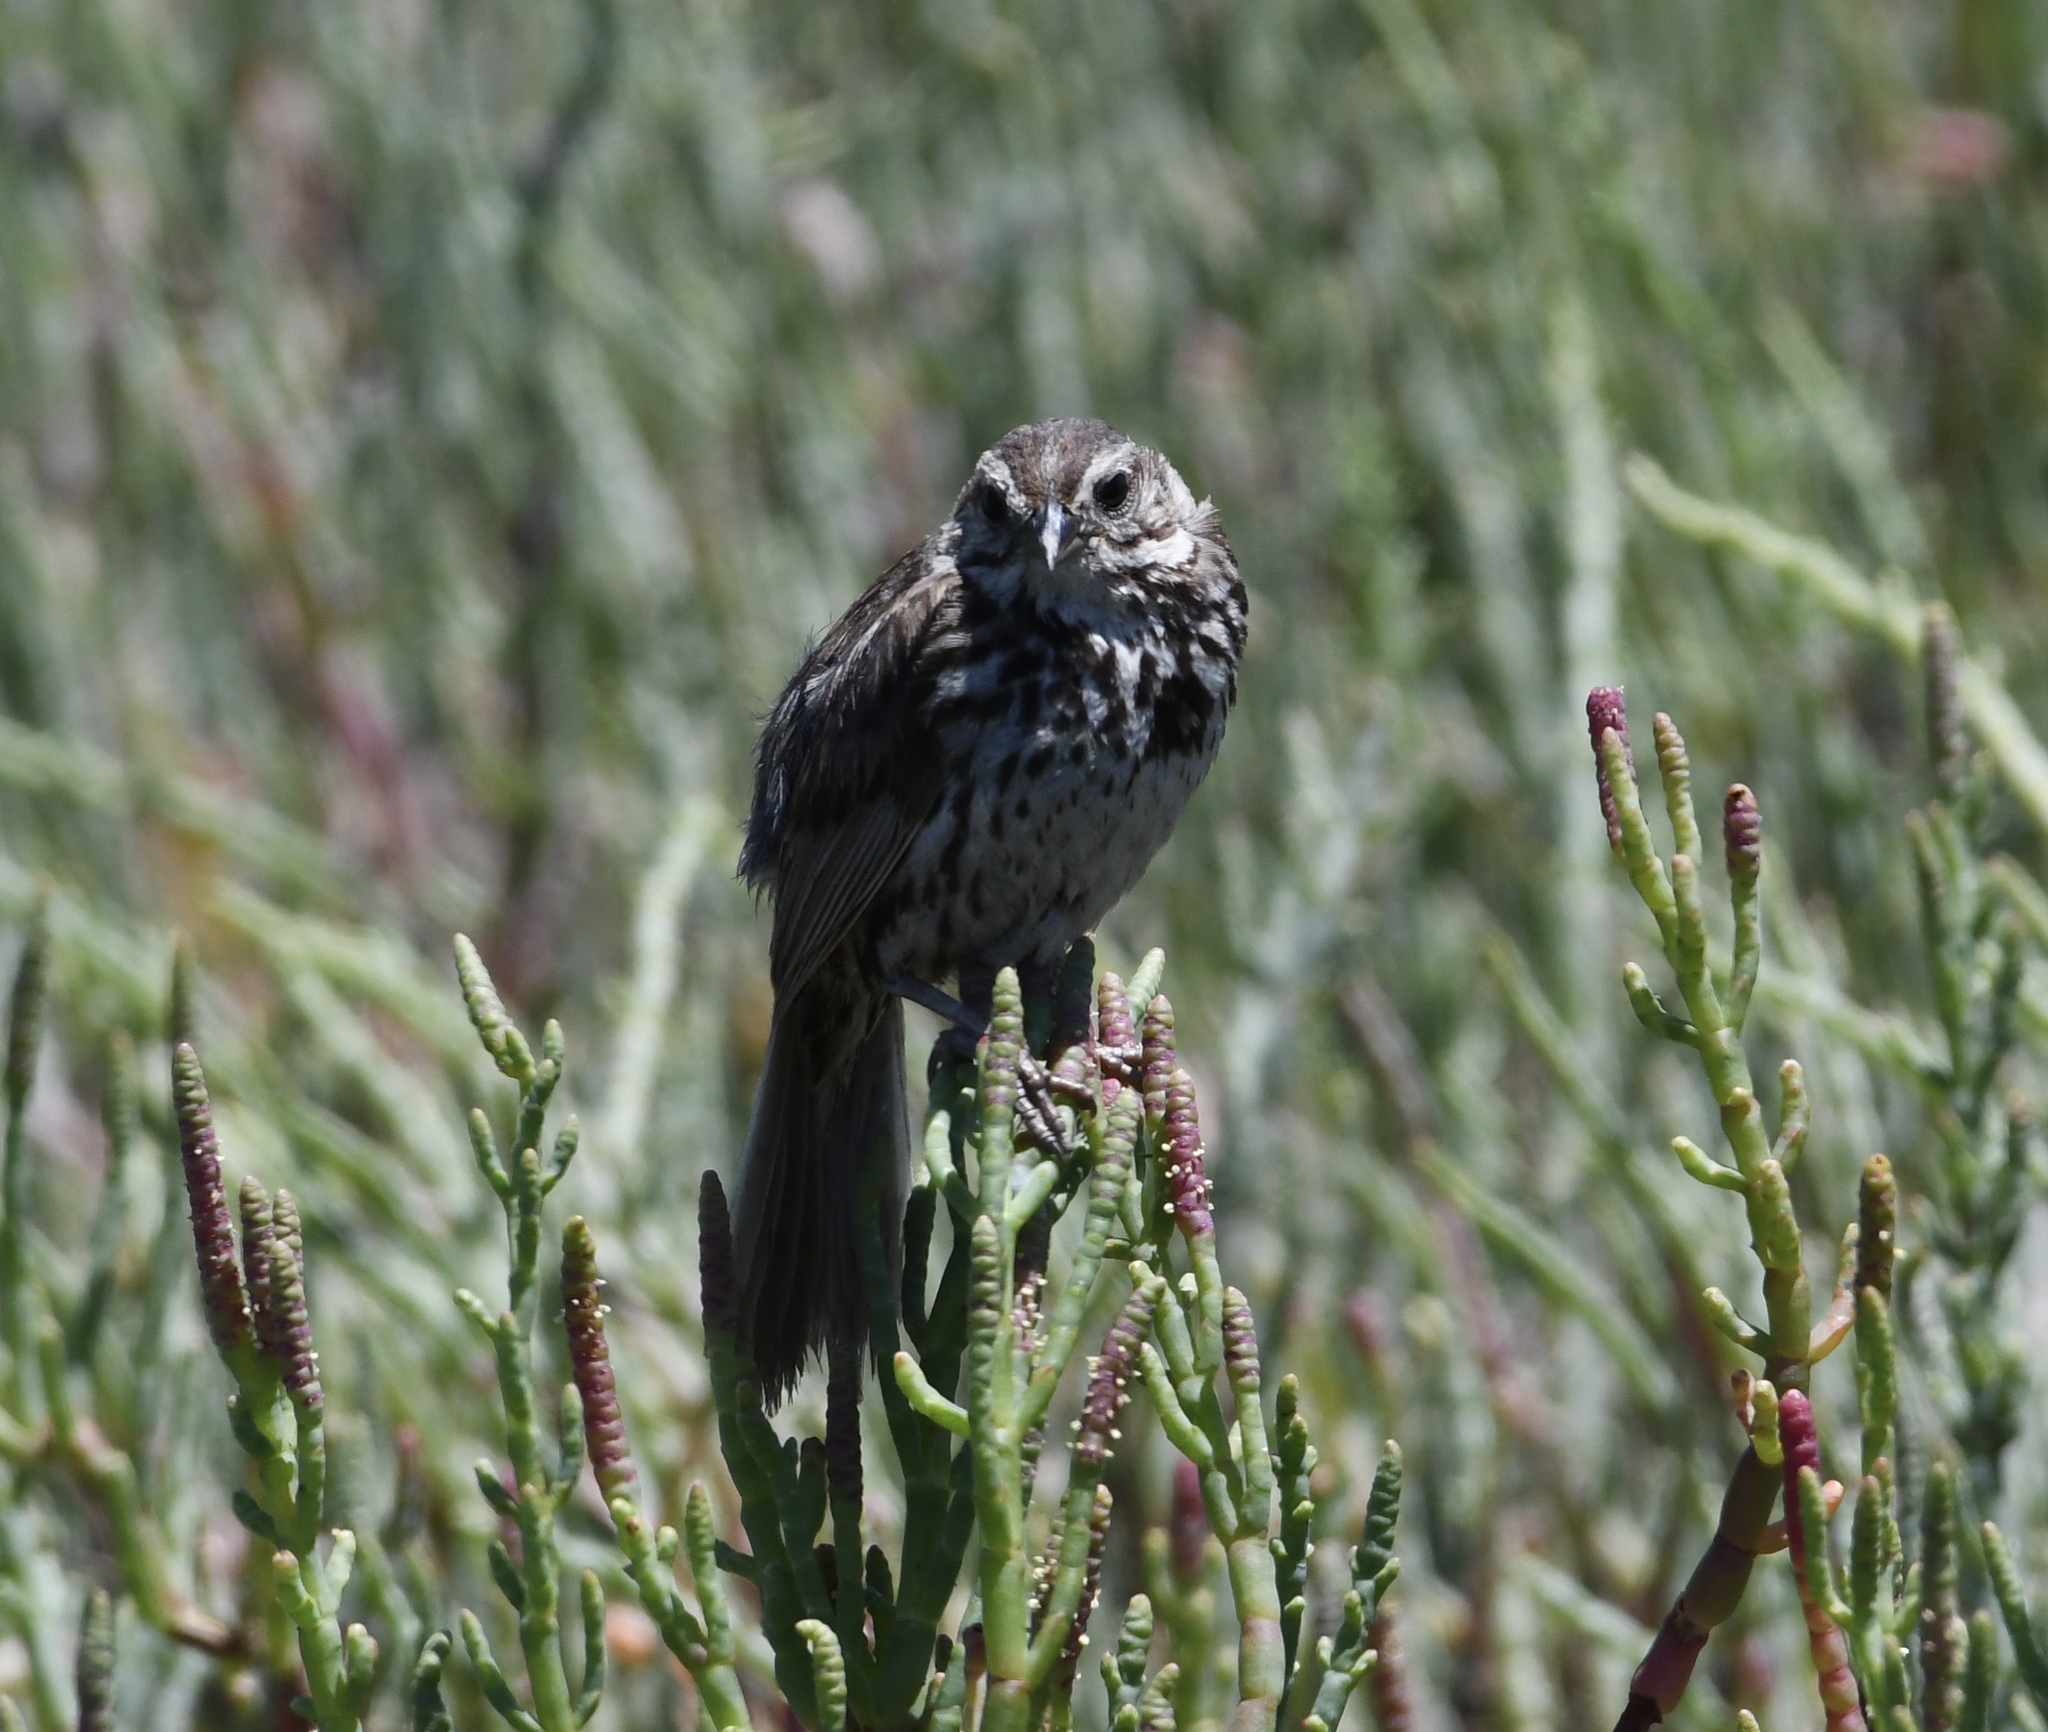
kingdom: Animalia
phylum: Chordata
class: Aves
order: Passeriformes
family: Passerellidae
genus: Melospiza
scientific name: Melospiza melodia
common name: Song sparrow
